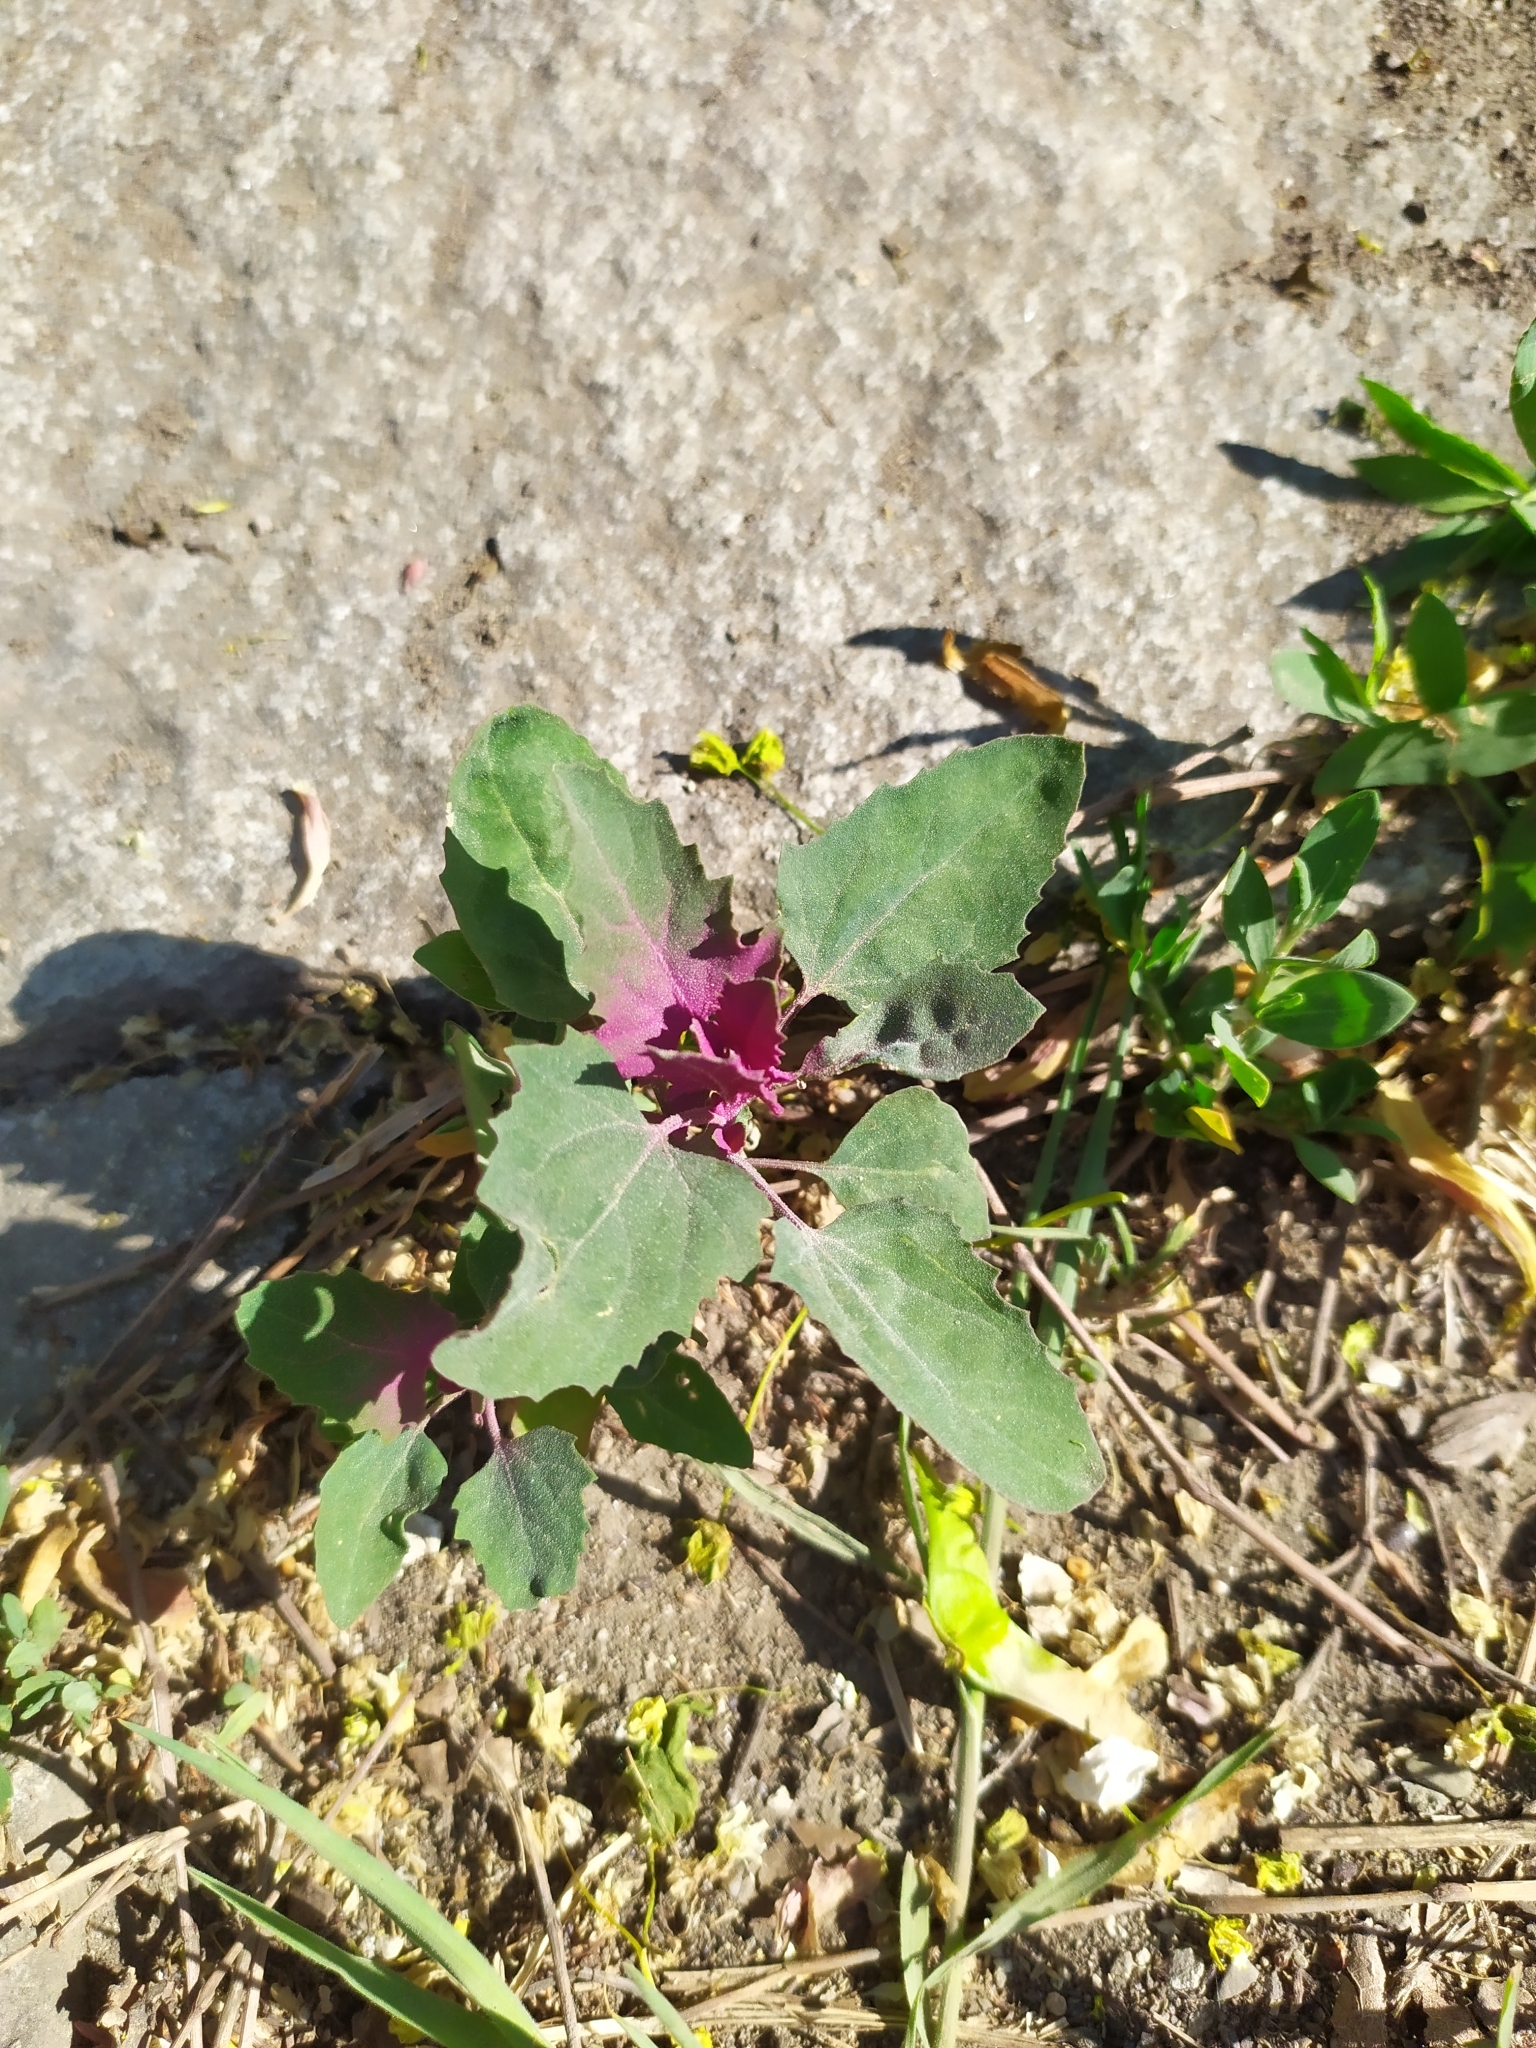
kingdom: Plantae
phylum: Tracheophyta
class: Magnoliopsida
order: Caryophyllales
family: Amaranthaceae
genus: Chenopodium
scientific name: Chenopodium giganteum
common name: Magentaspreen
